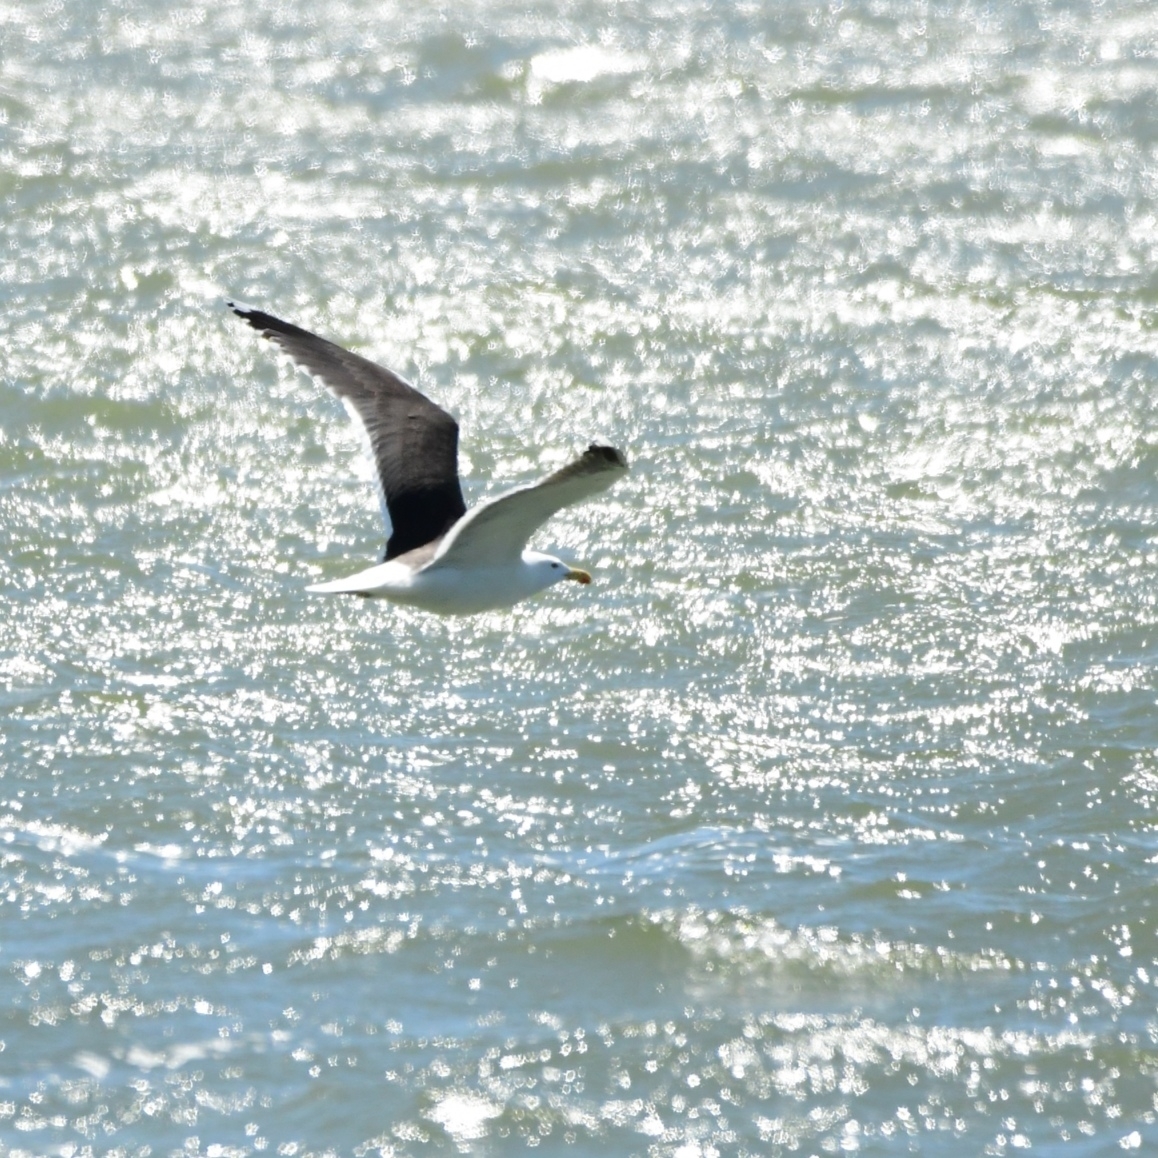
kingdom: Animalia
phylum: Chordata
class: Aves
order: Charadriiformes
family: Laridae
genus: Larus
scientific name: Larus marinus
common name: Great black-backed gull
